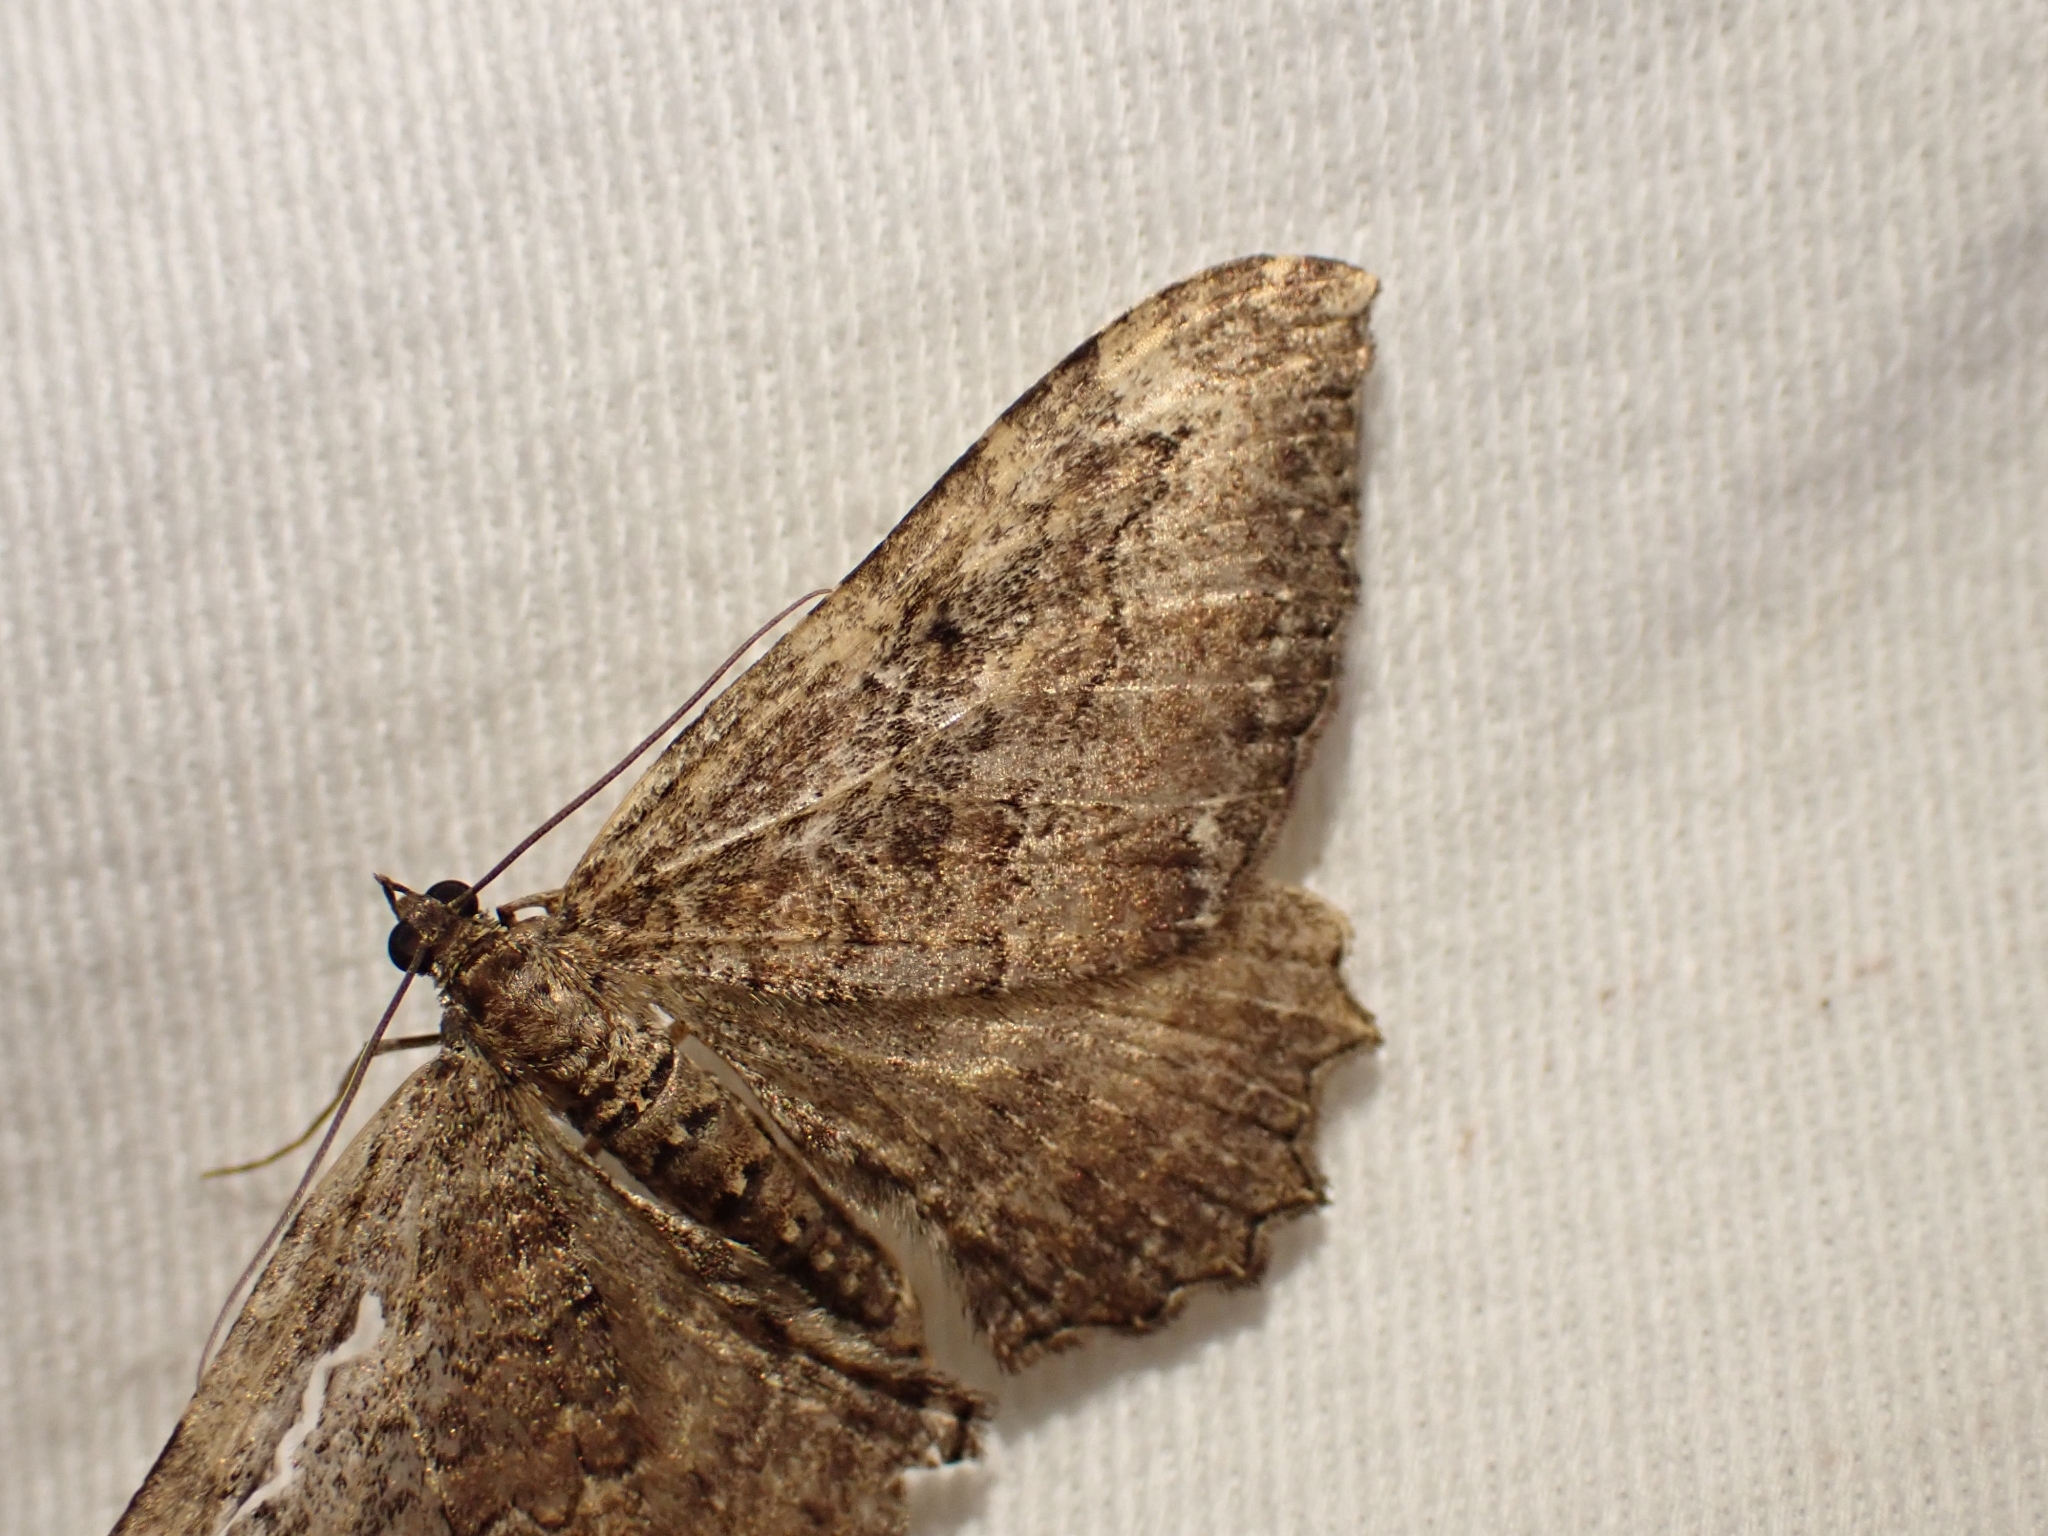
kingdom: Animalia
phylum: Arthropoda
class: Insecta
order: Lepidoptera
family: Geometridae
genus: Rheumaptera
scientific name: Rheumaptera
